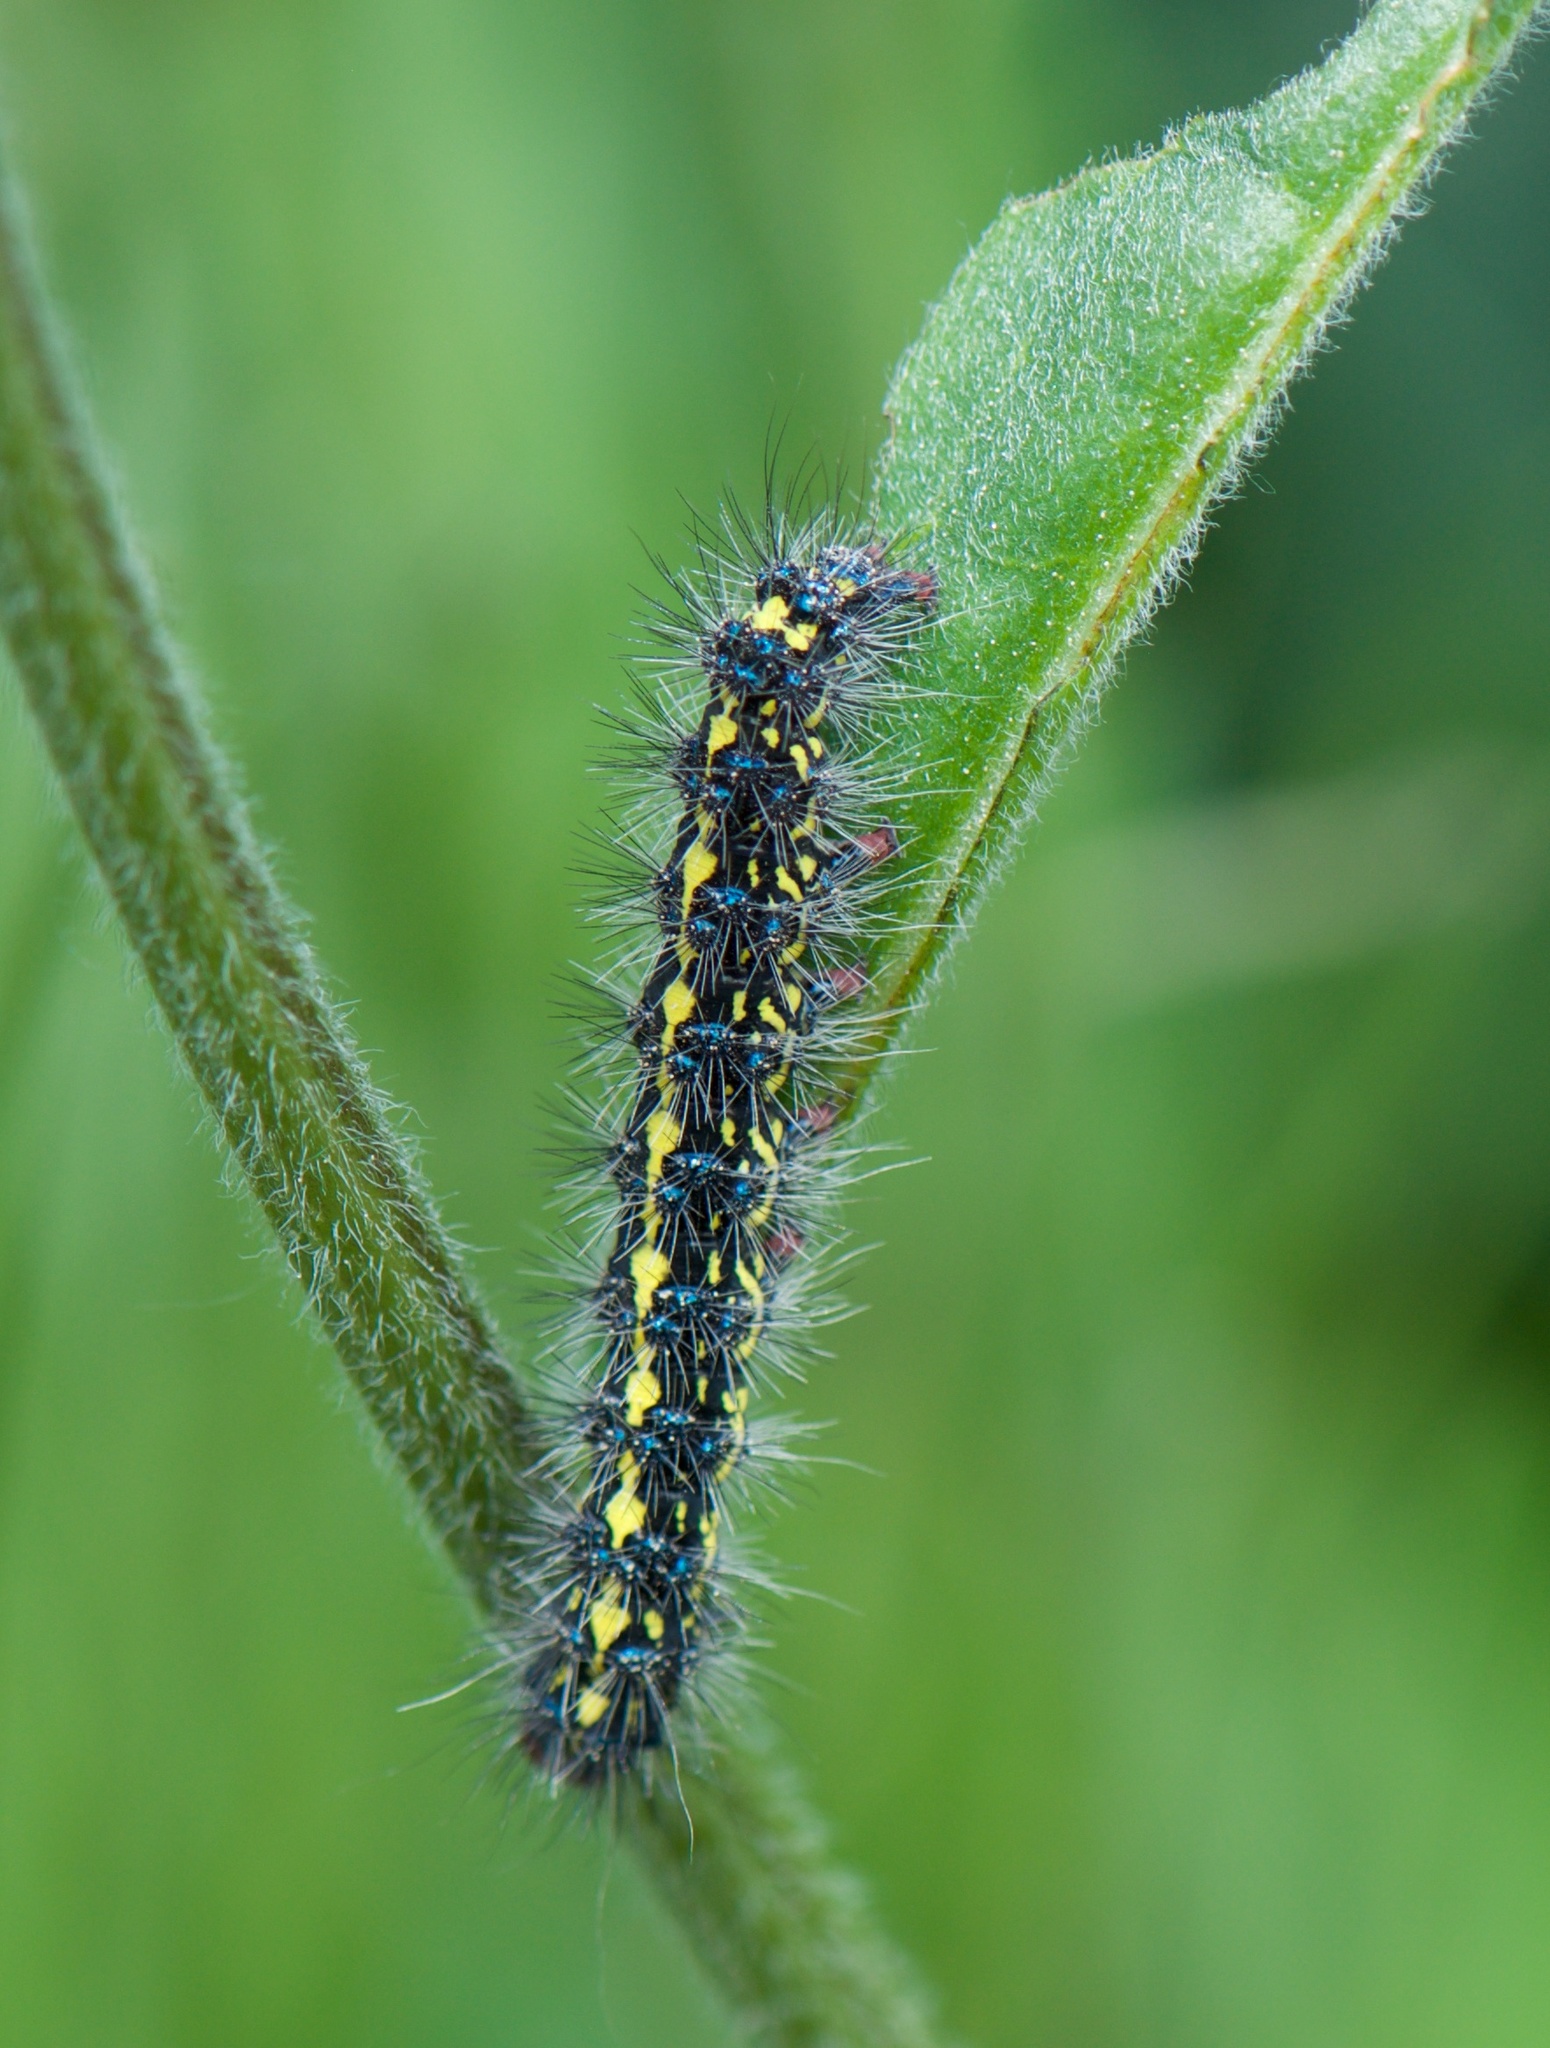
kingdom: Animalia
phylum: Arthropoda
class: Insecta
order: Lepidoptera
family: Erebidae
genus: Gnophaela
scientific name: Gnophaela vermiculata
